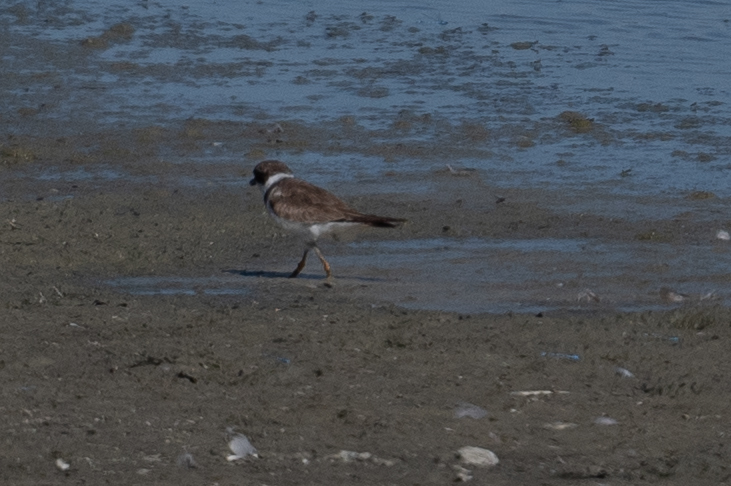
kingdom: Animalia
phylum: Chordata
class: Aves
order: Charadriiformes
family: Charadriidae
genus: Charadrius
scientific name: Charadrius semipalmatus
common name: Semipalmated plover
